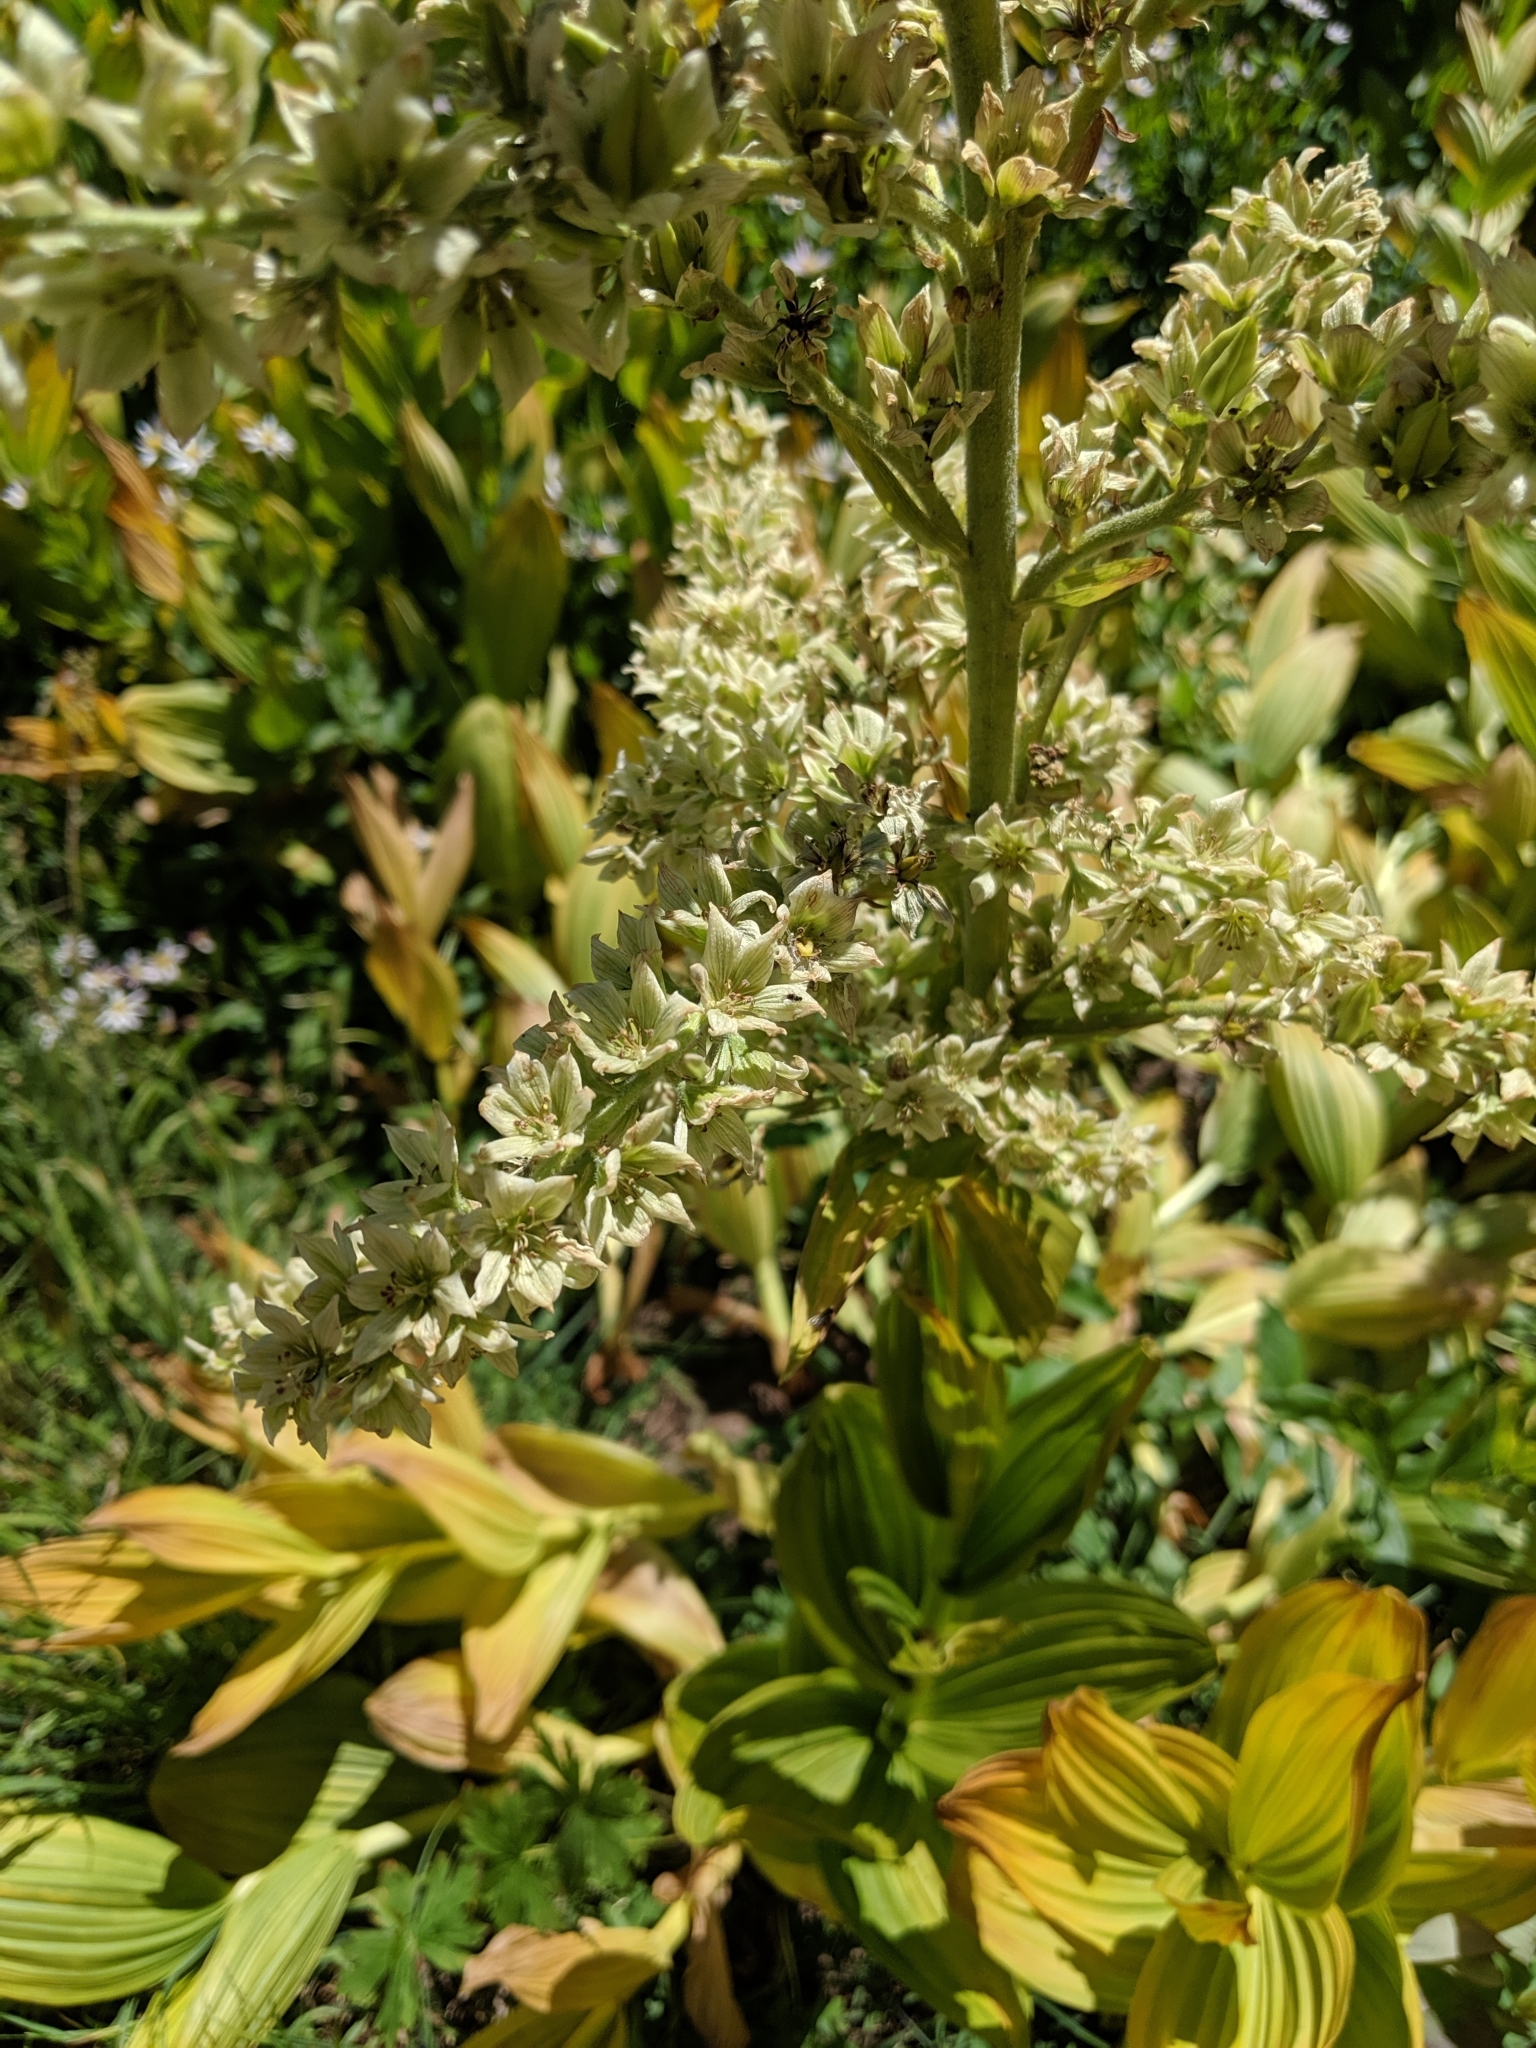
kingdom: Plantae
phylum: Tracheophyta
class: Liliopsida
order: Liliales
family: Melanthiaceae
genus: Veratrum
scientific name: Veratrum californicum
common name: California veratrum
